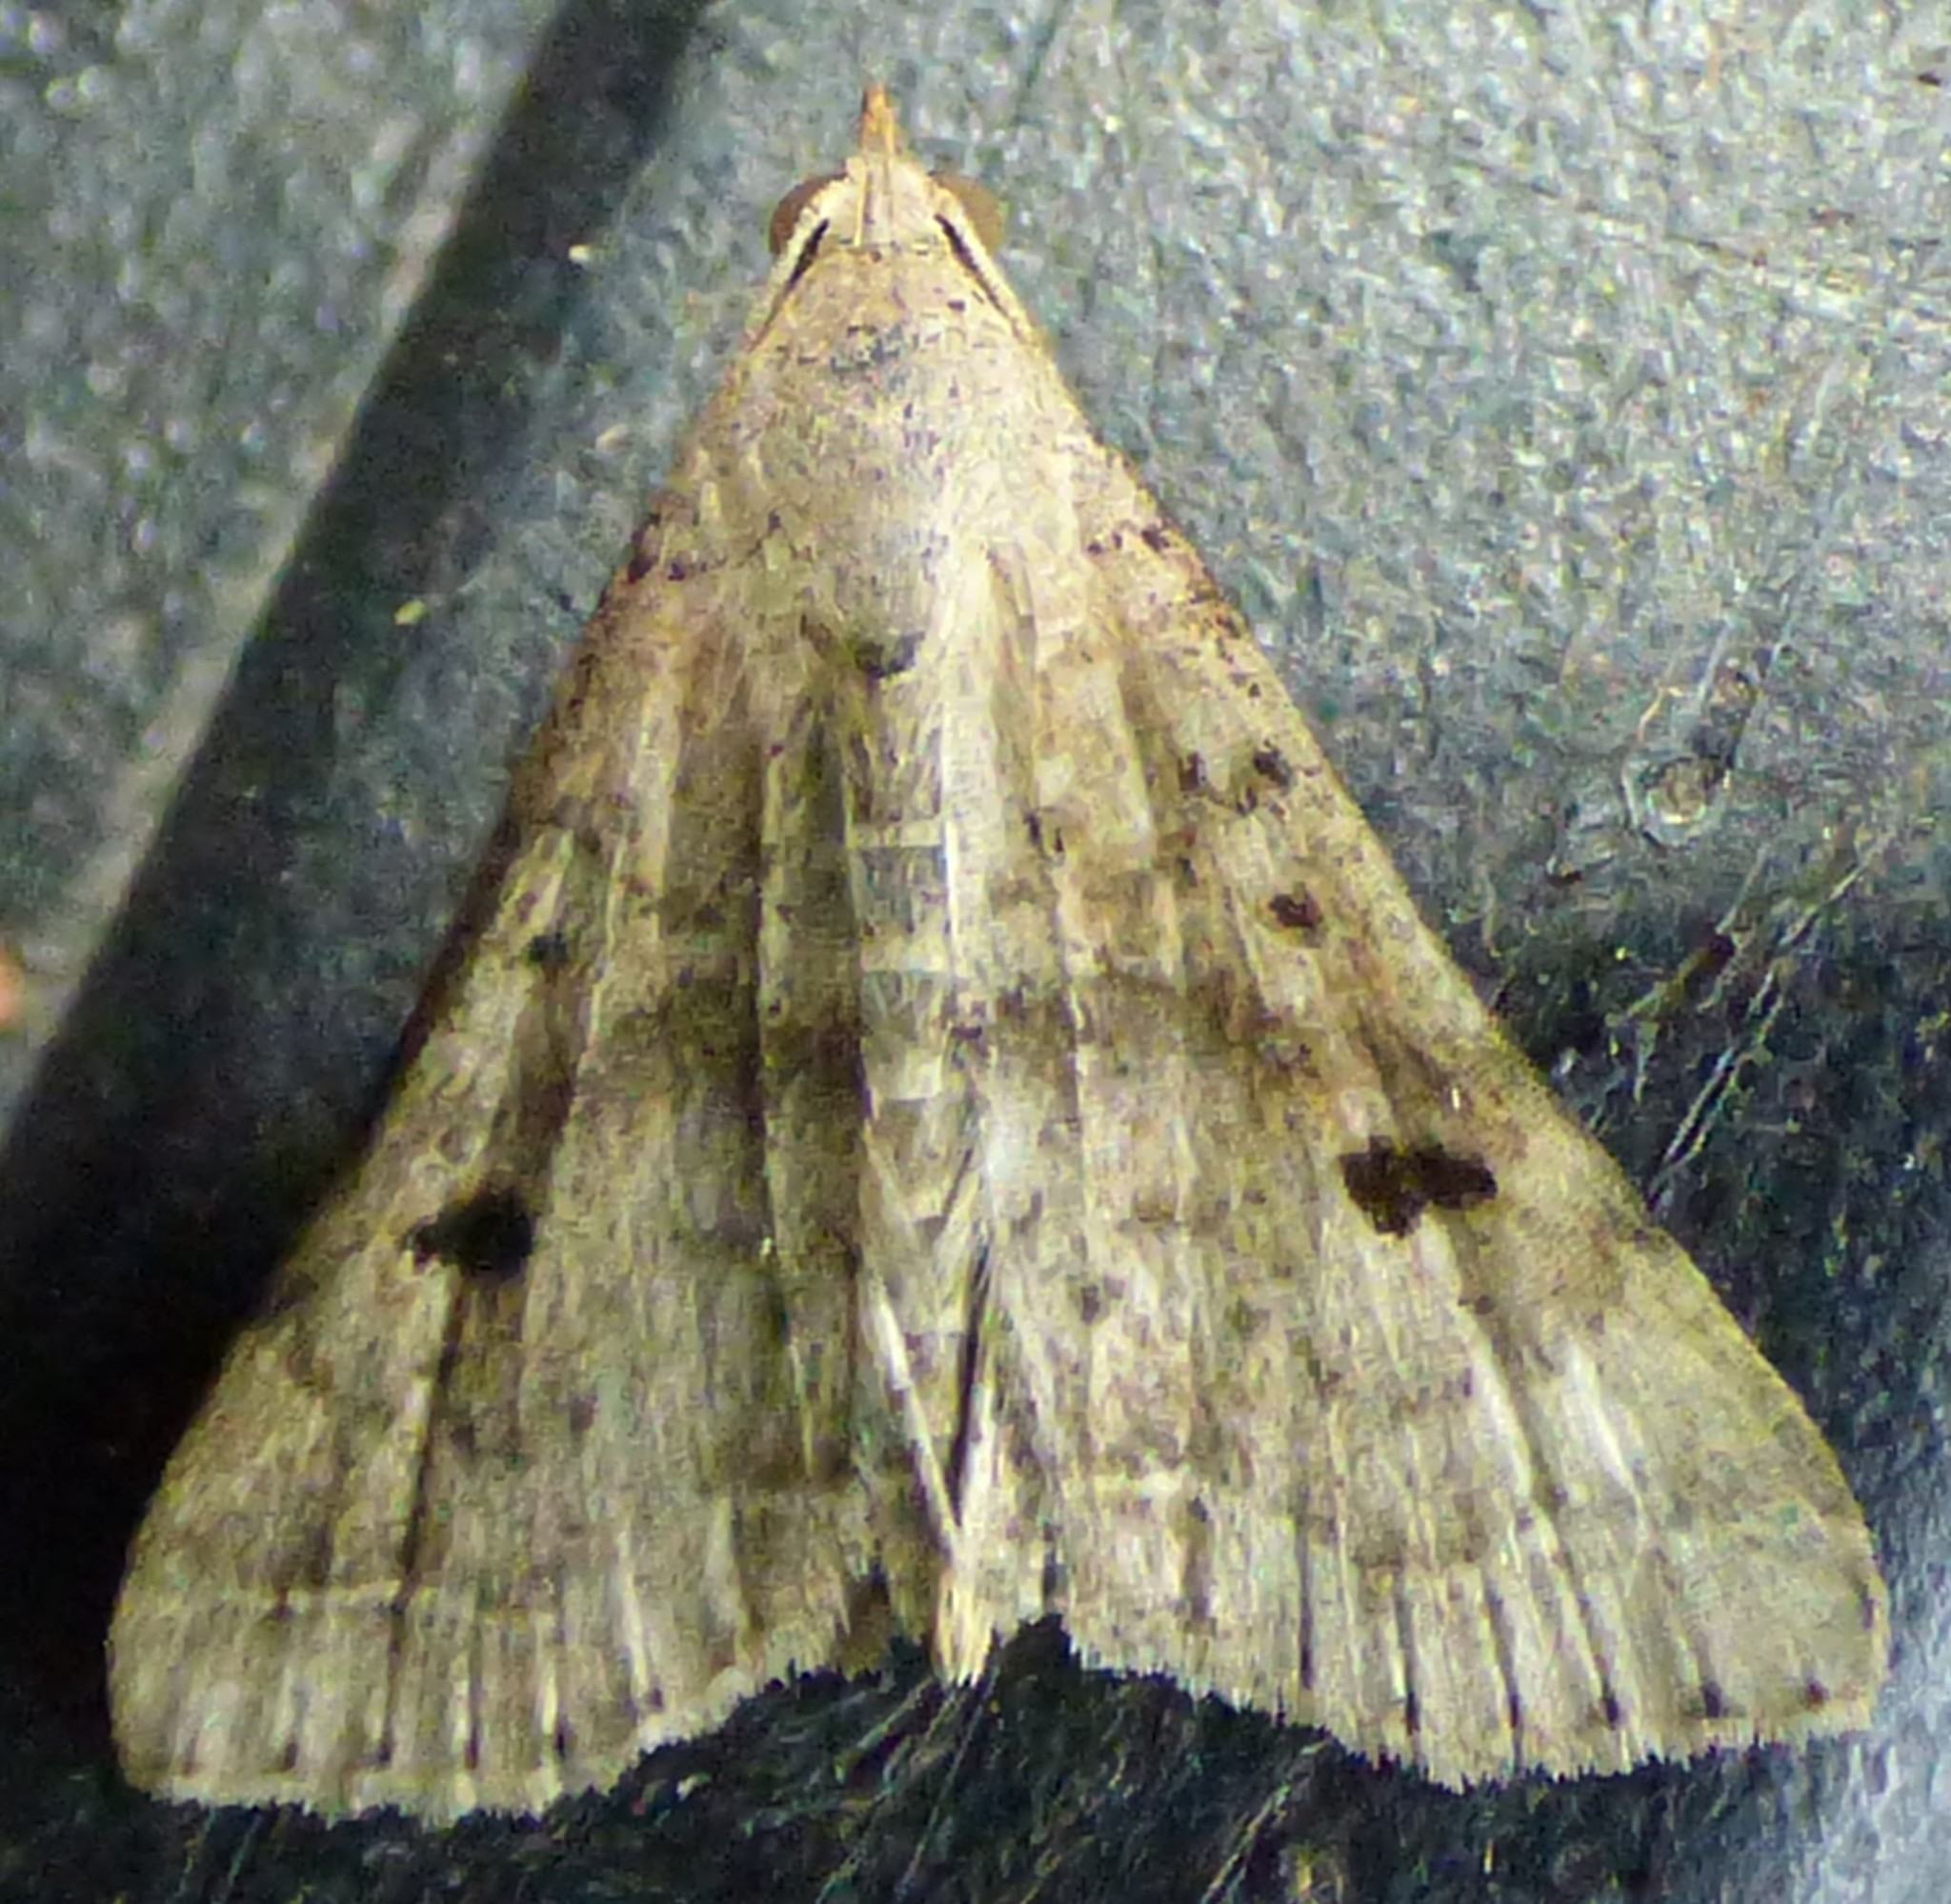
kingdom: Animalia
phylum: Arthropoda
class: Insecta
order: Lepidoptera
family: Erebidae
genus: Bleptina
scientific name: Bleptina caradrinalis
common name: Bent-winged owlet
